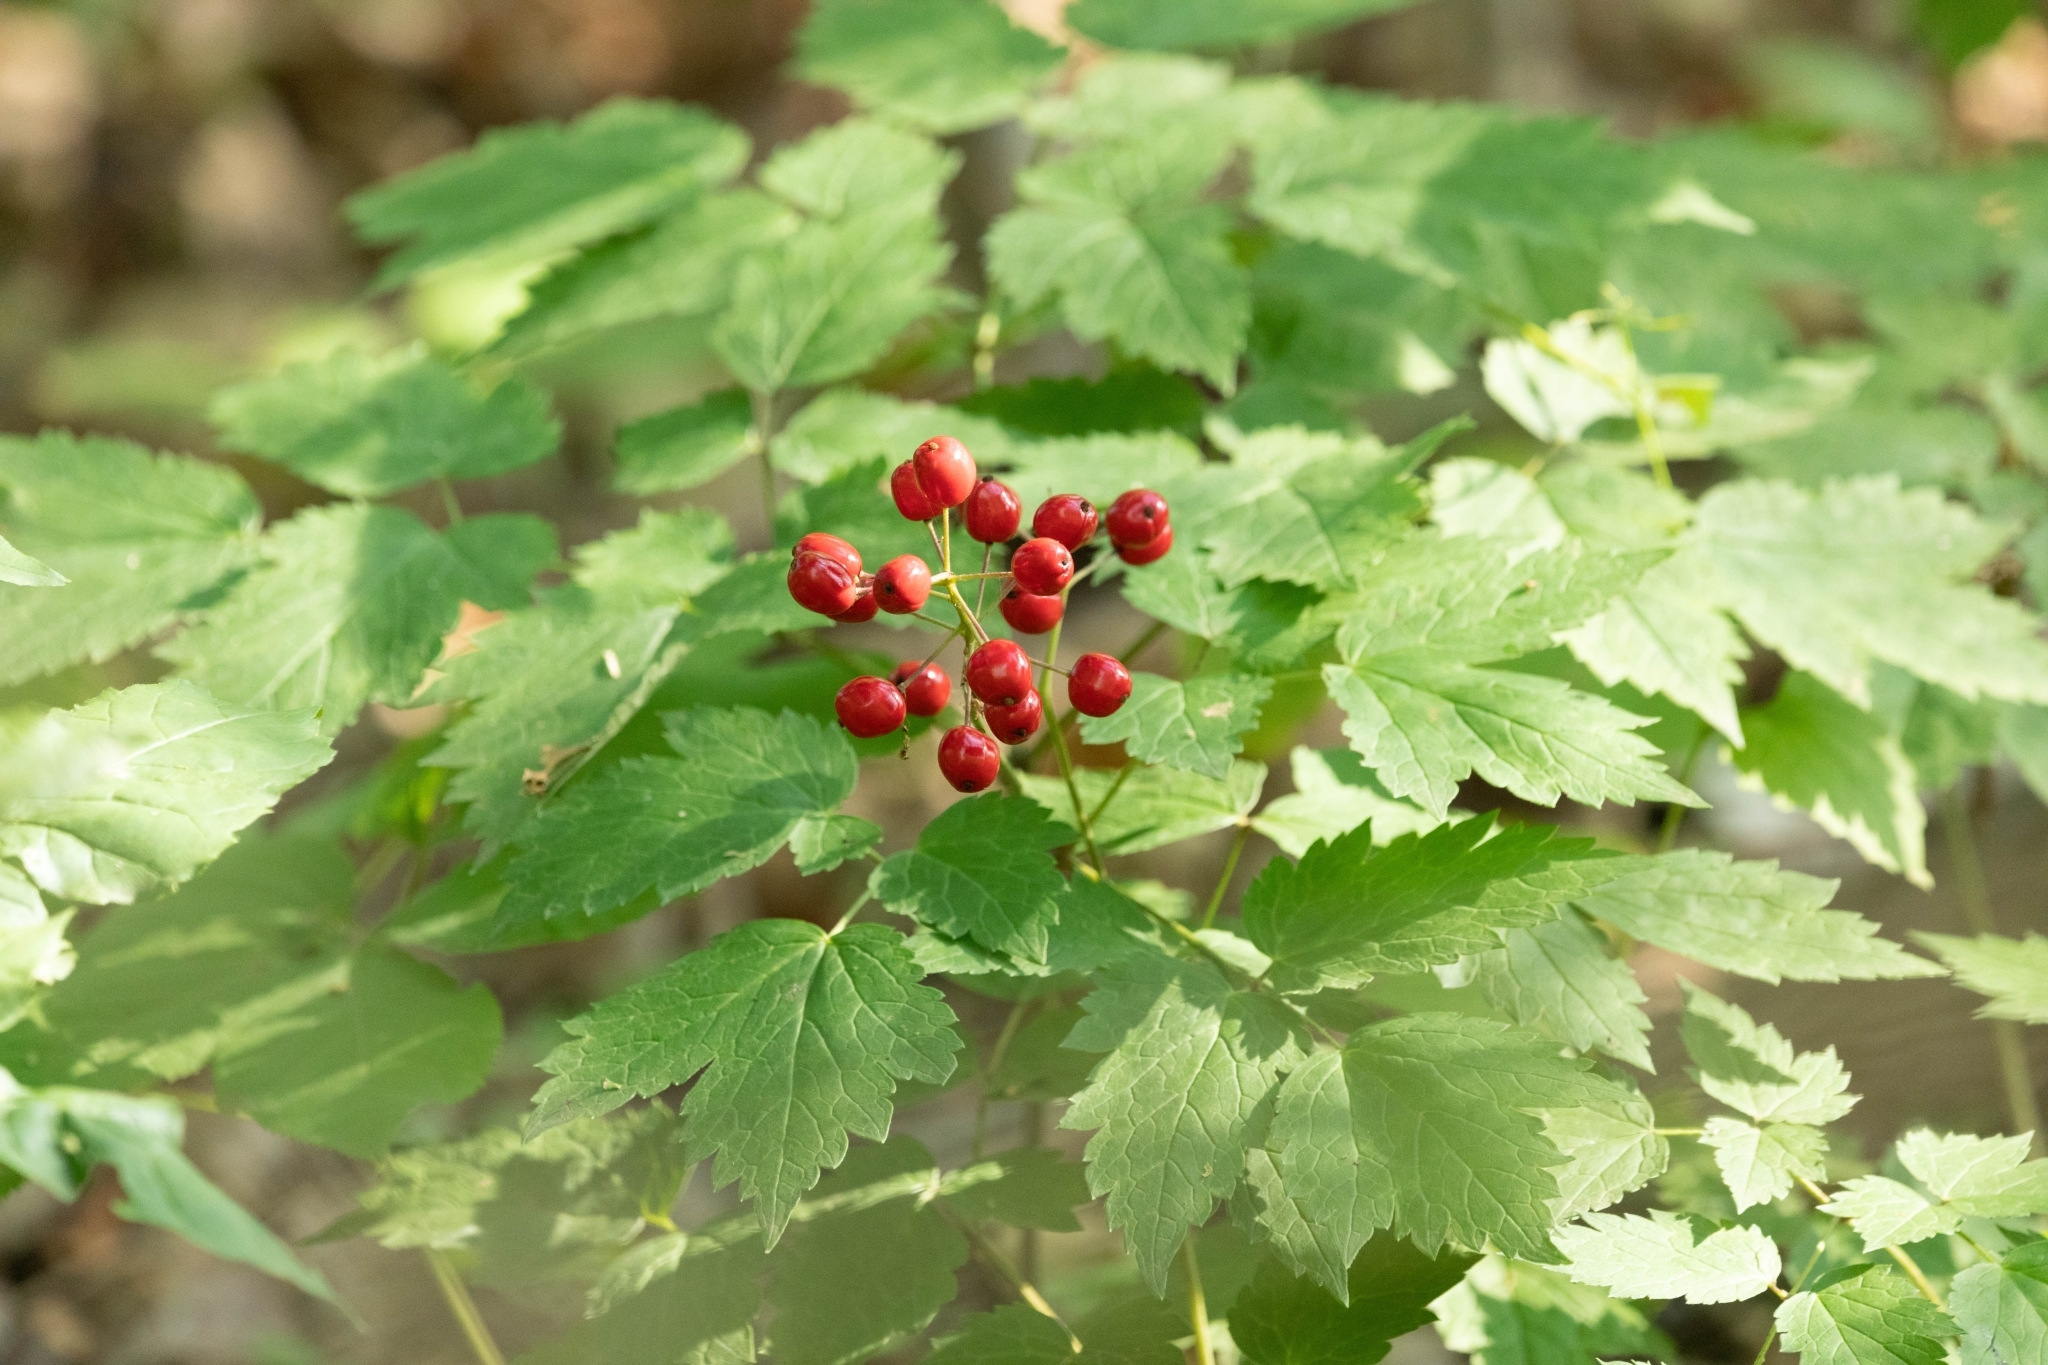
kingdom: Plantae
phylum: Tracheophyta
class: Magnoliopsida
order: Ranunculales
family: Ranunculaceae
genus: Actaea
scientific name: Actaea rubra
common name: Red baneberry
